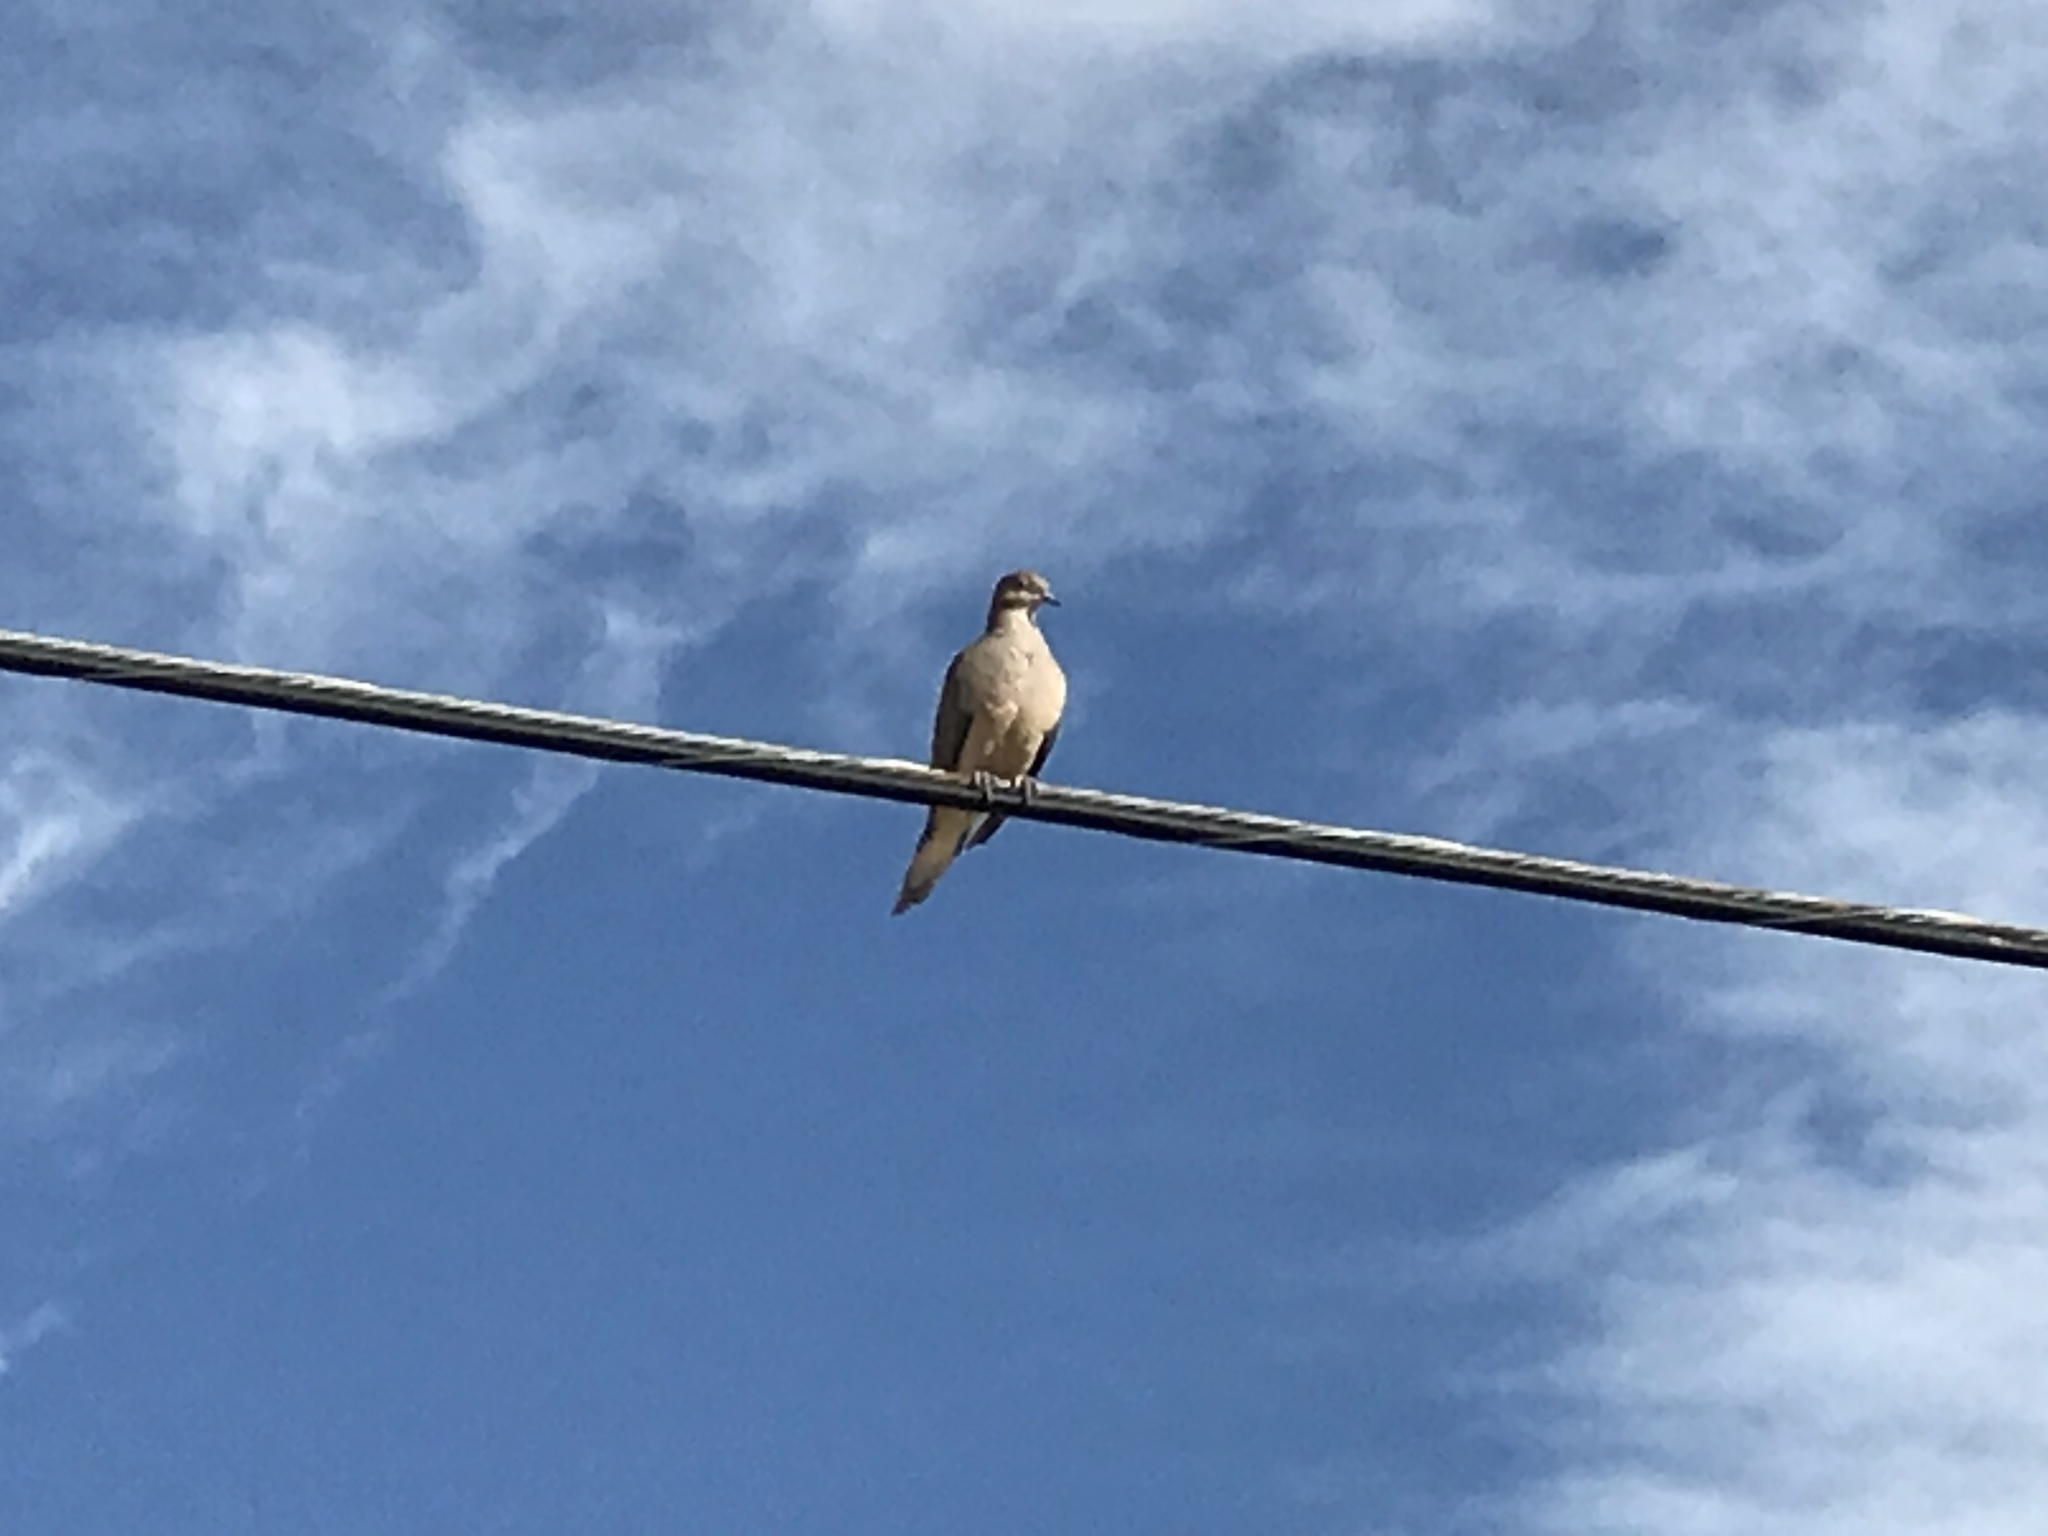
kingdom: Animalia
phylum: Chordata
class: Aves
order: Columbiformes
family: Columbidae
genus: Zenaida
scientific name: Zenaida macroura
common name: Mourning dove
